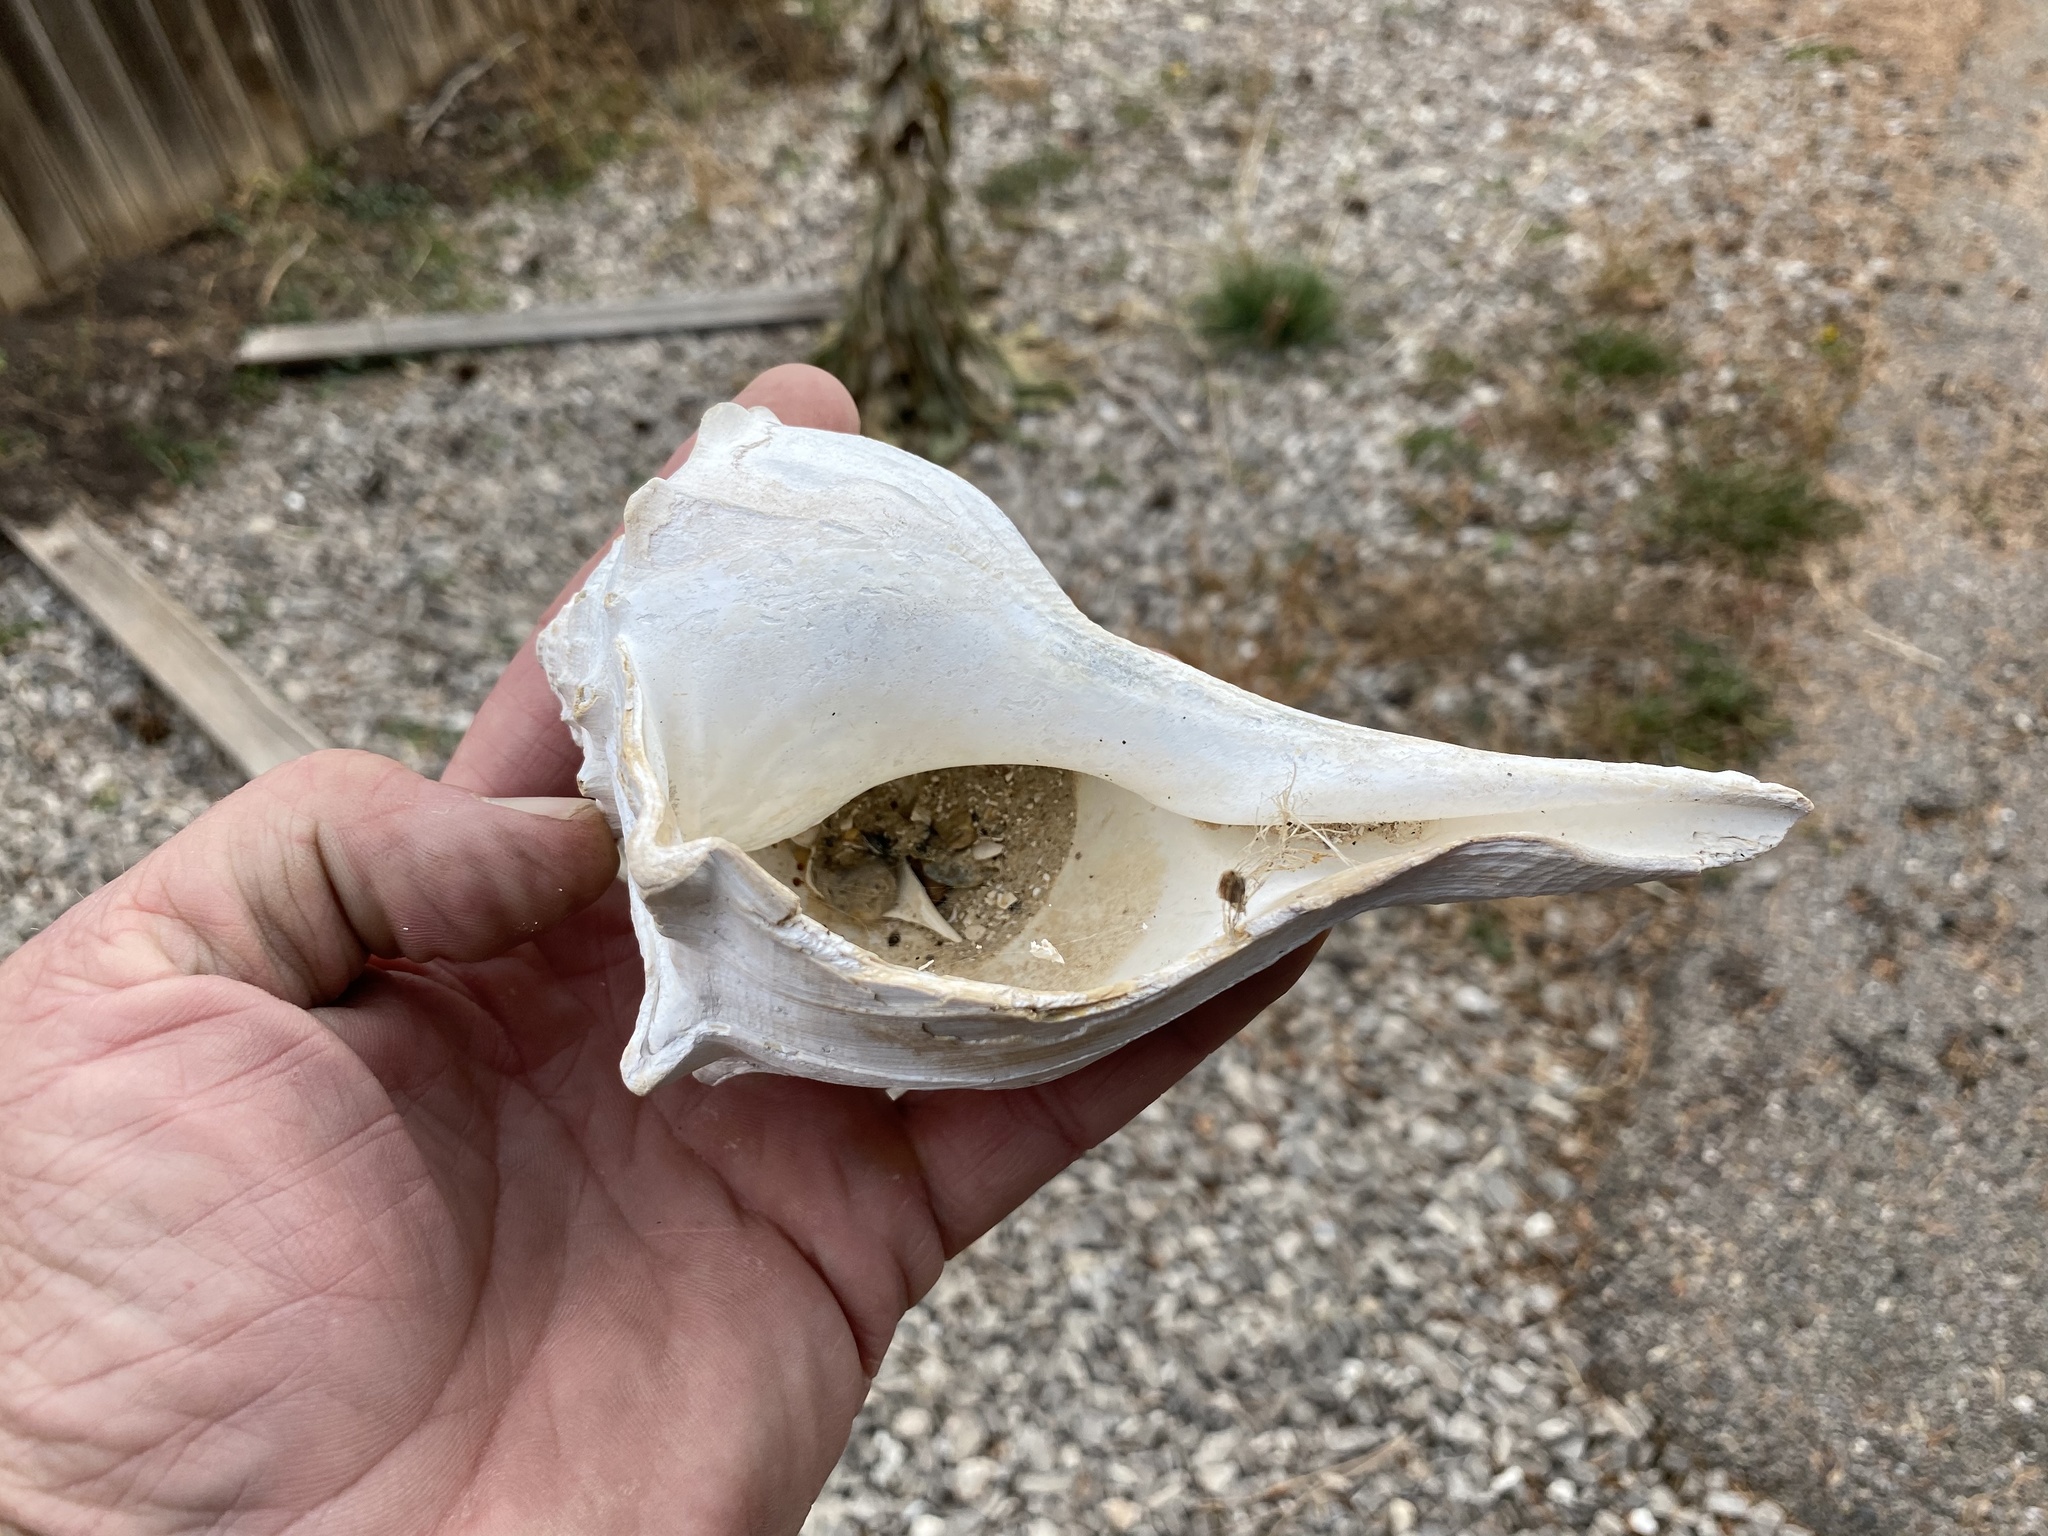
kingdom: Animalia
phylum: Mollusca
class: Gastropoda
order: Neogastropoda
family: Busyconidae
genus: Sinistrofulgur
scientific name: Sinistrofulgur pulleyi
